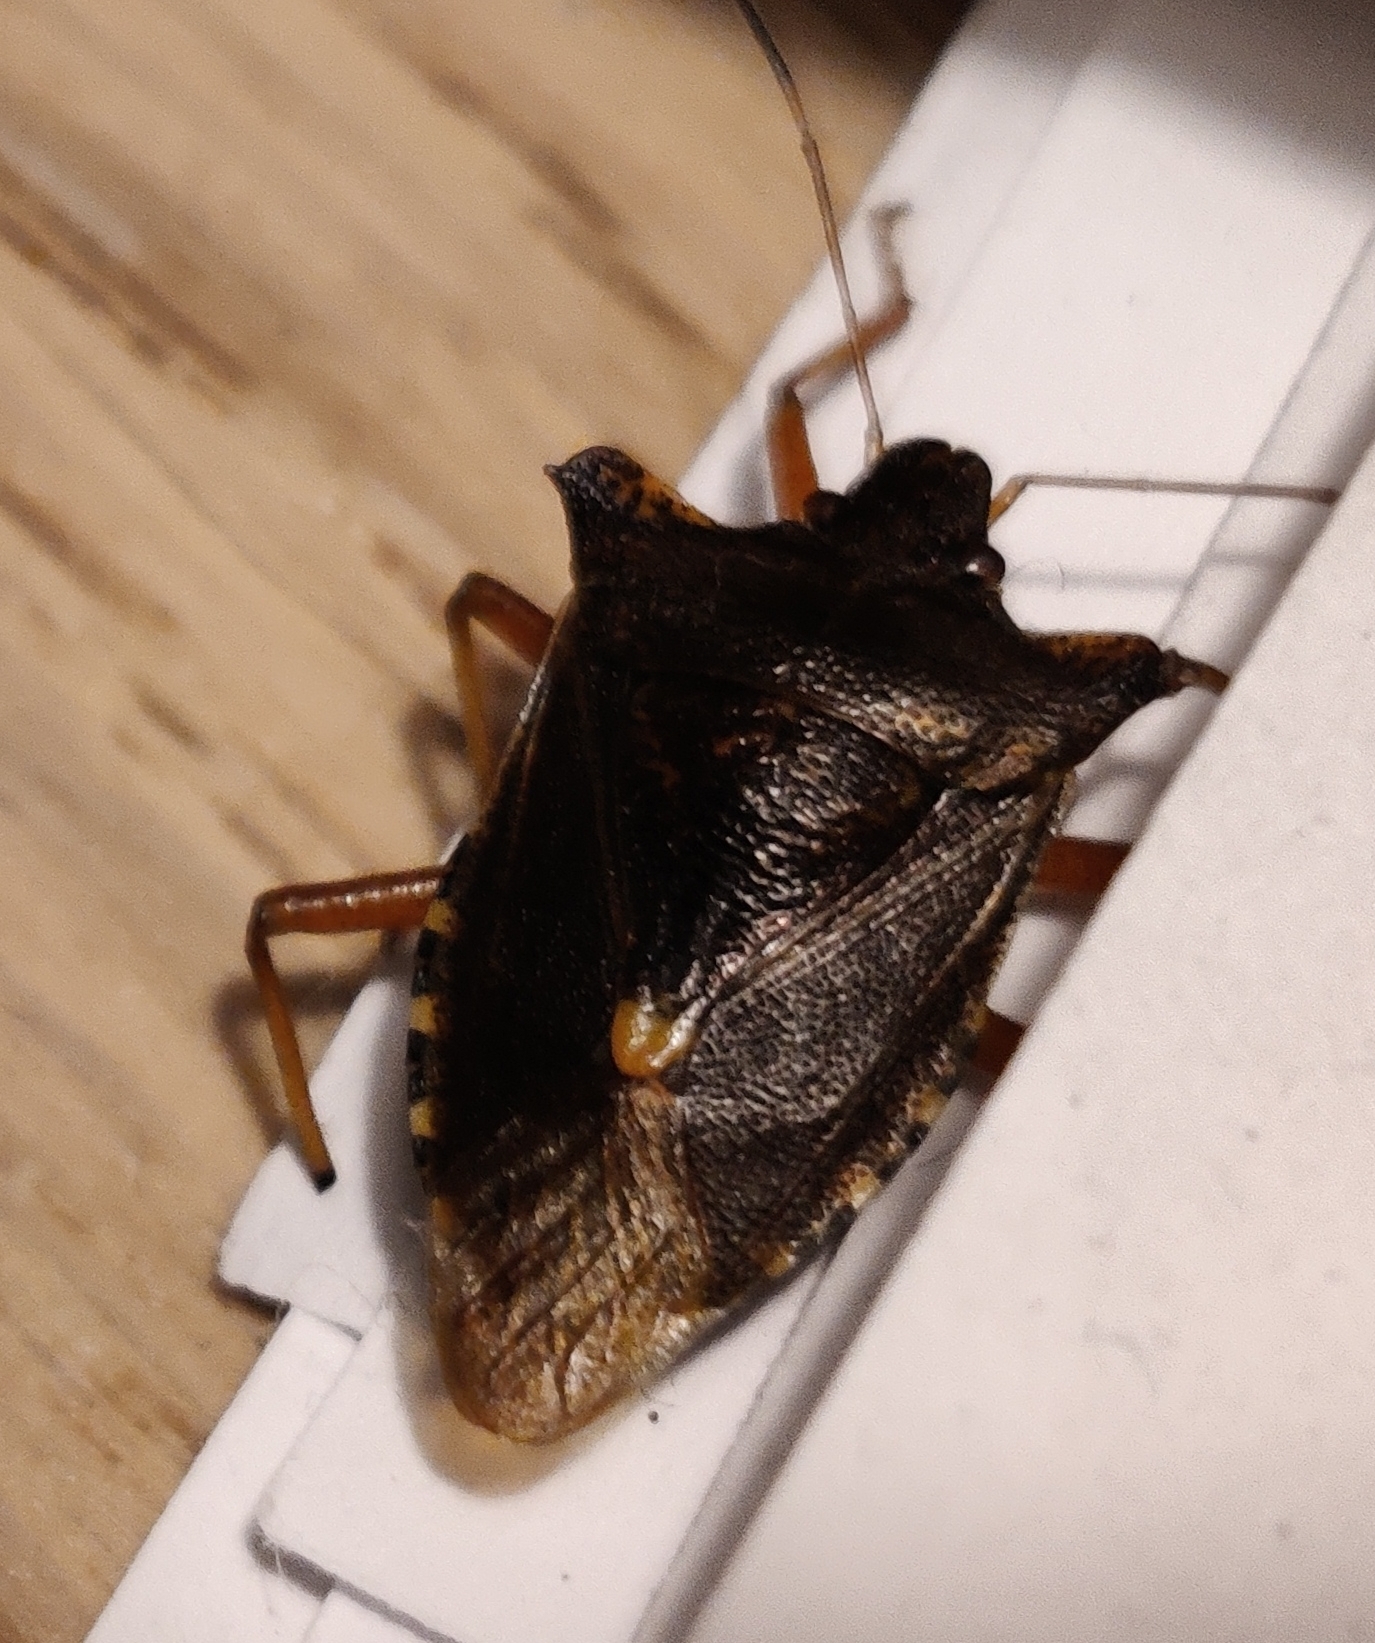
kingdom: Animalia
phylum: Arthropoda
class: Insecta
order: Hemiptera
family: Pentatomidae
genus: Pentatoma
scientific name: Pentatoma rufipes
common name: Forest bug
